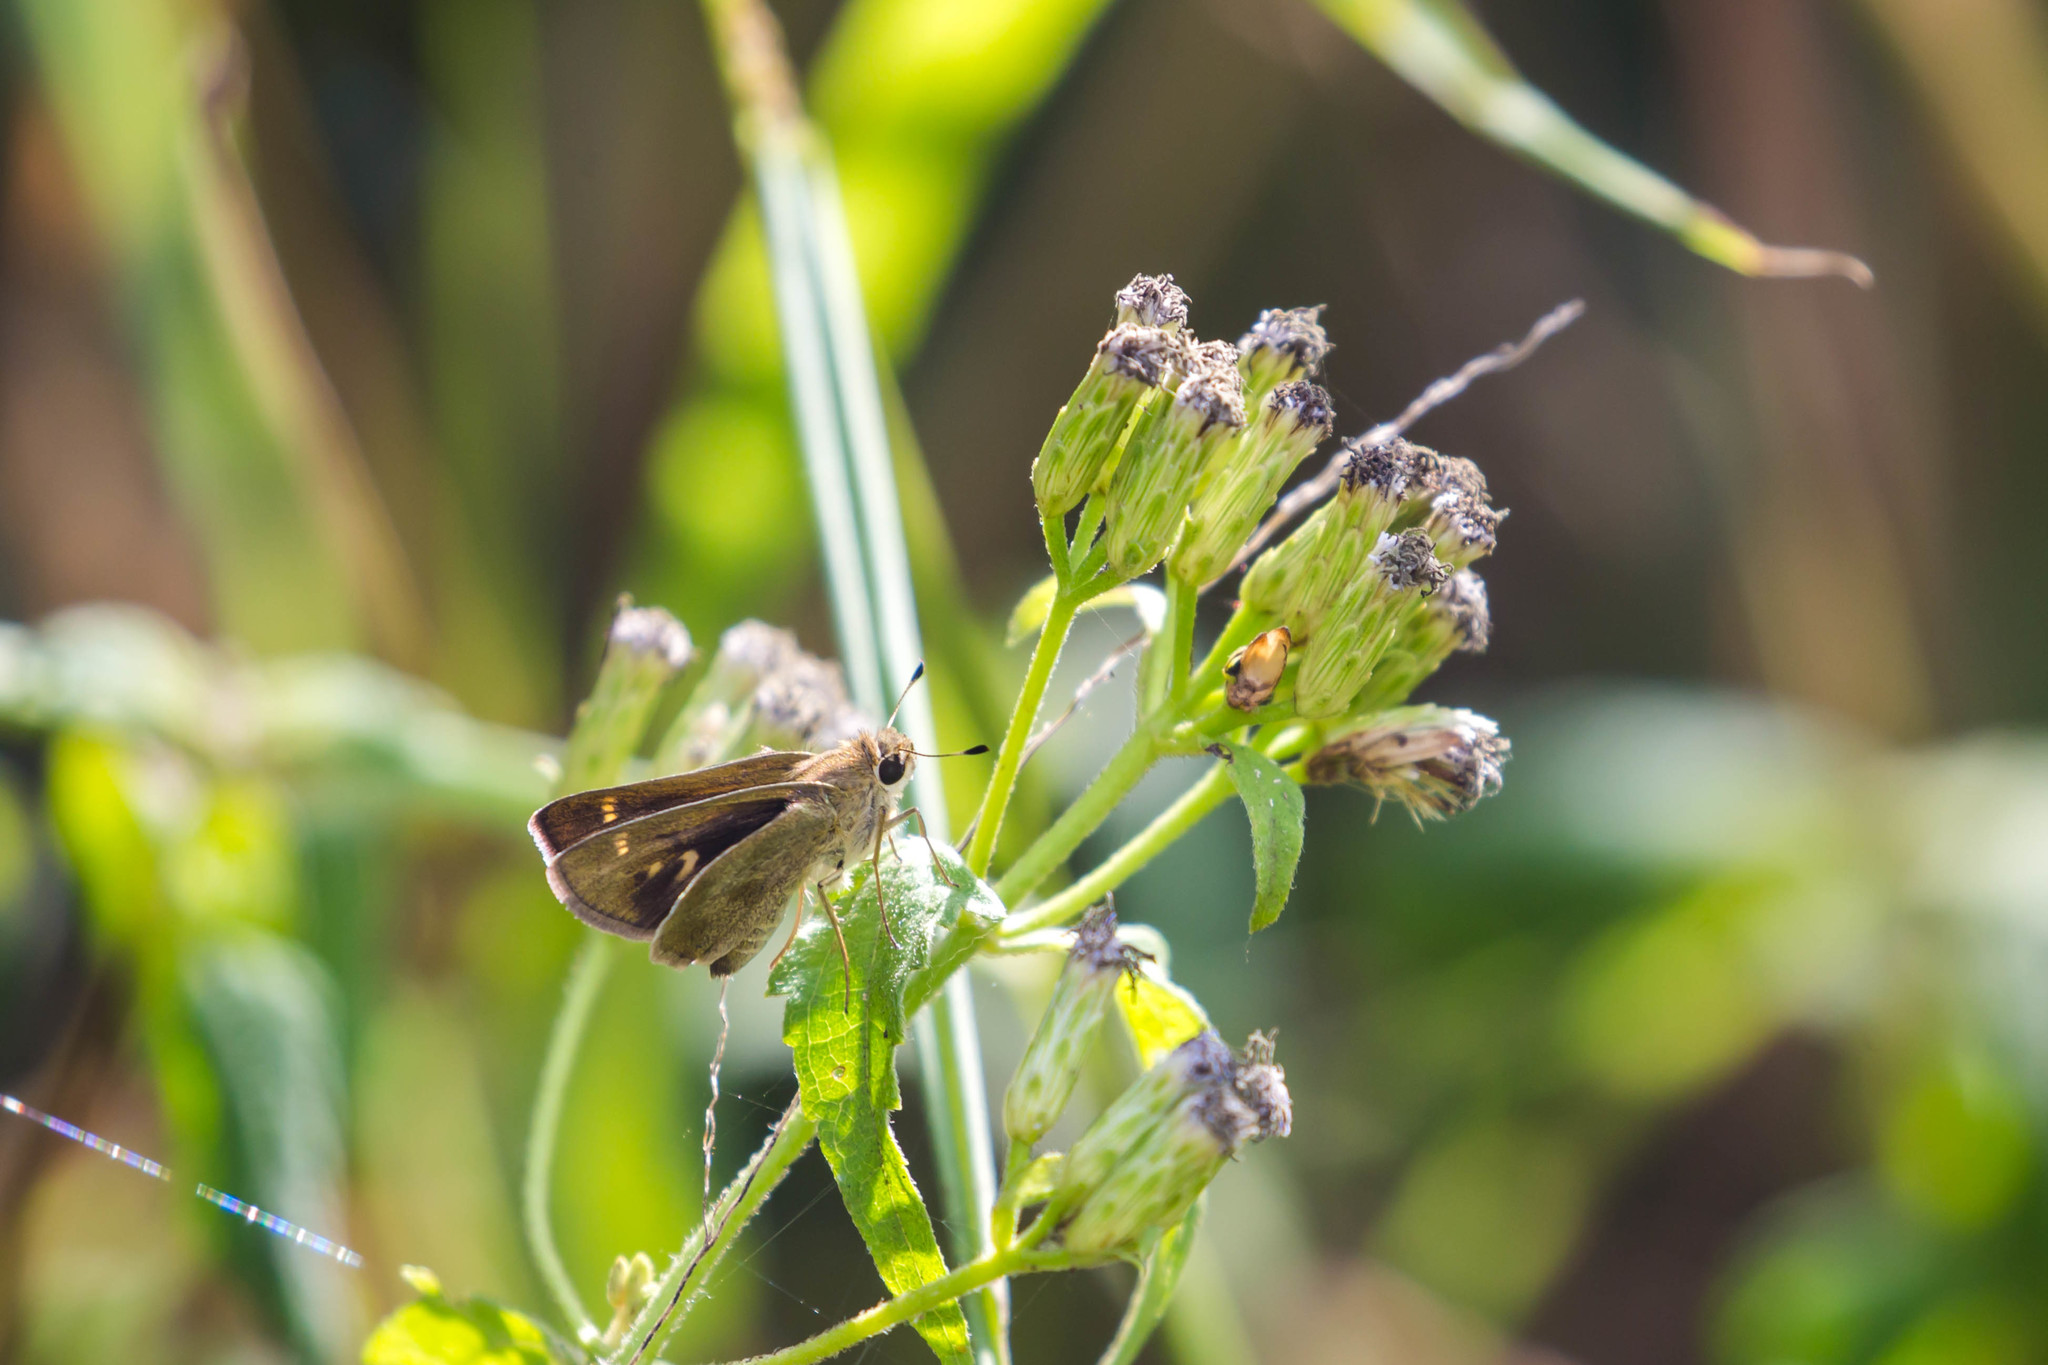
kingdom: Animalia
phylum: Arthropoda
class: Insecta
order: Lepidoptera
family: Hesperiidae
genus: Lerodea
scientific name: Lerodea eufala
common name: Eufala skipper
